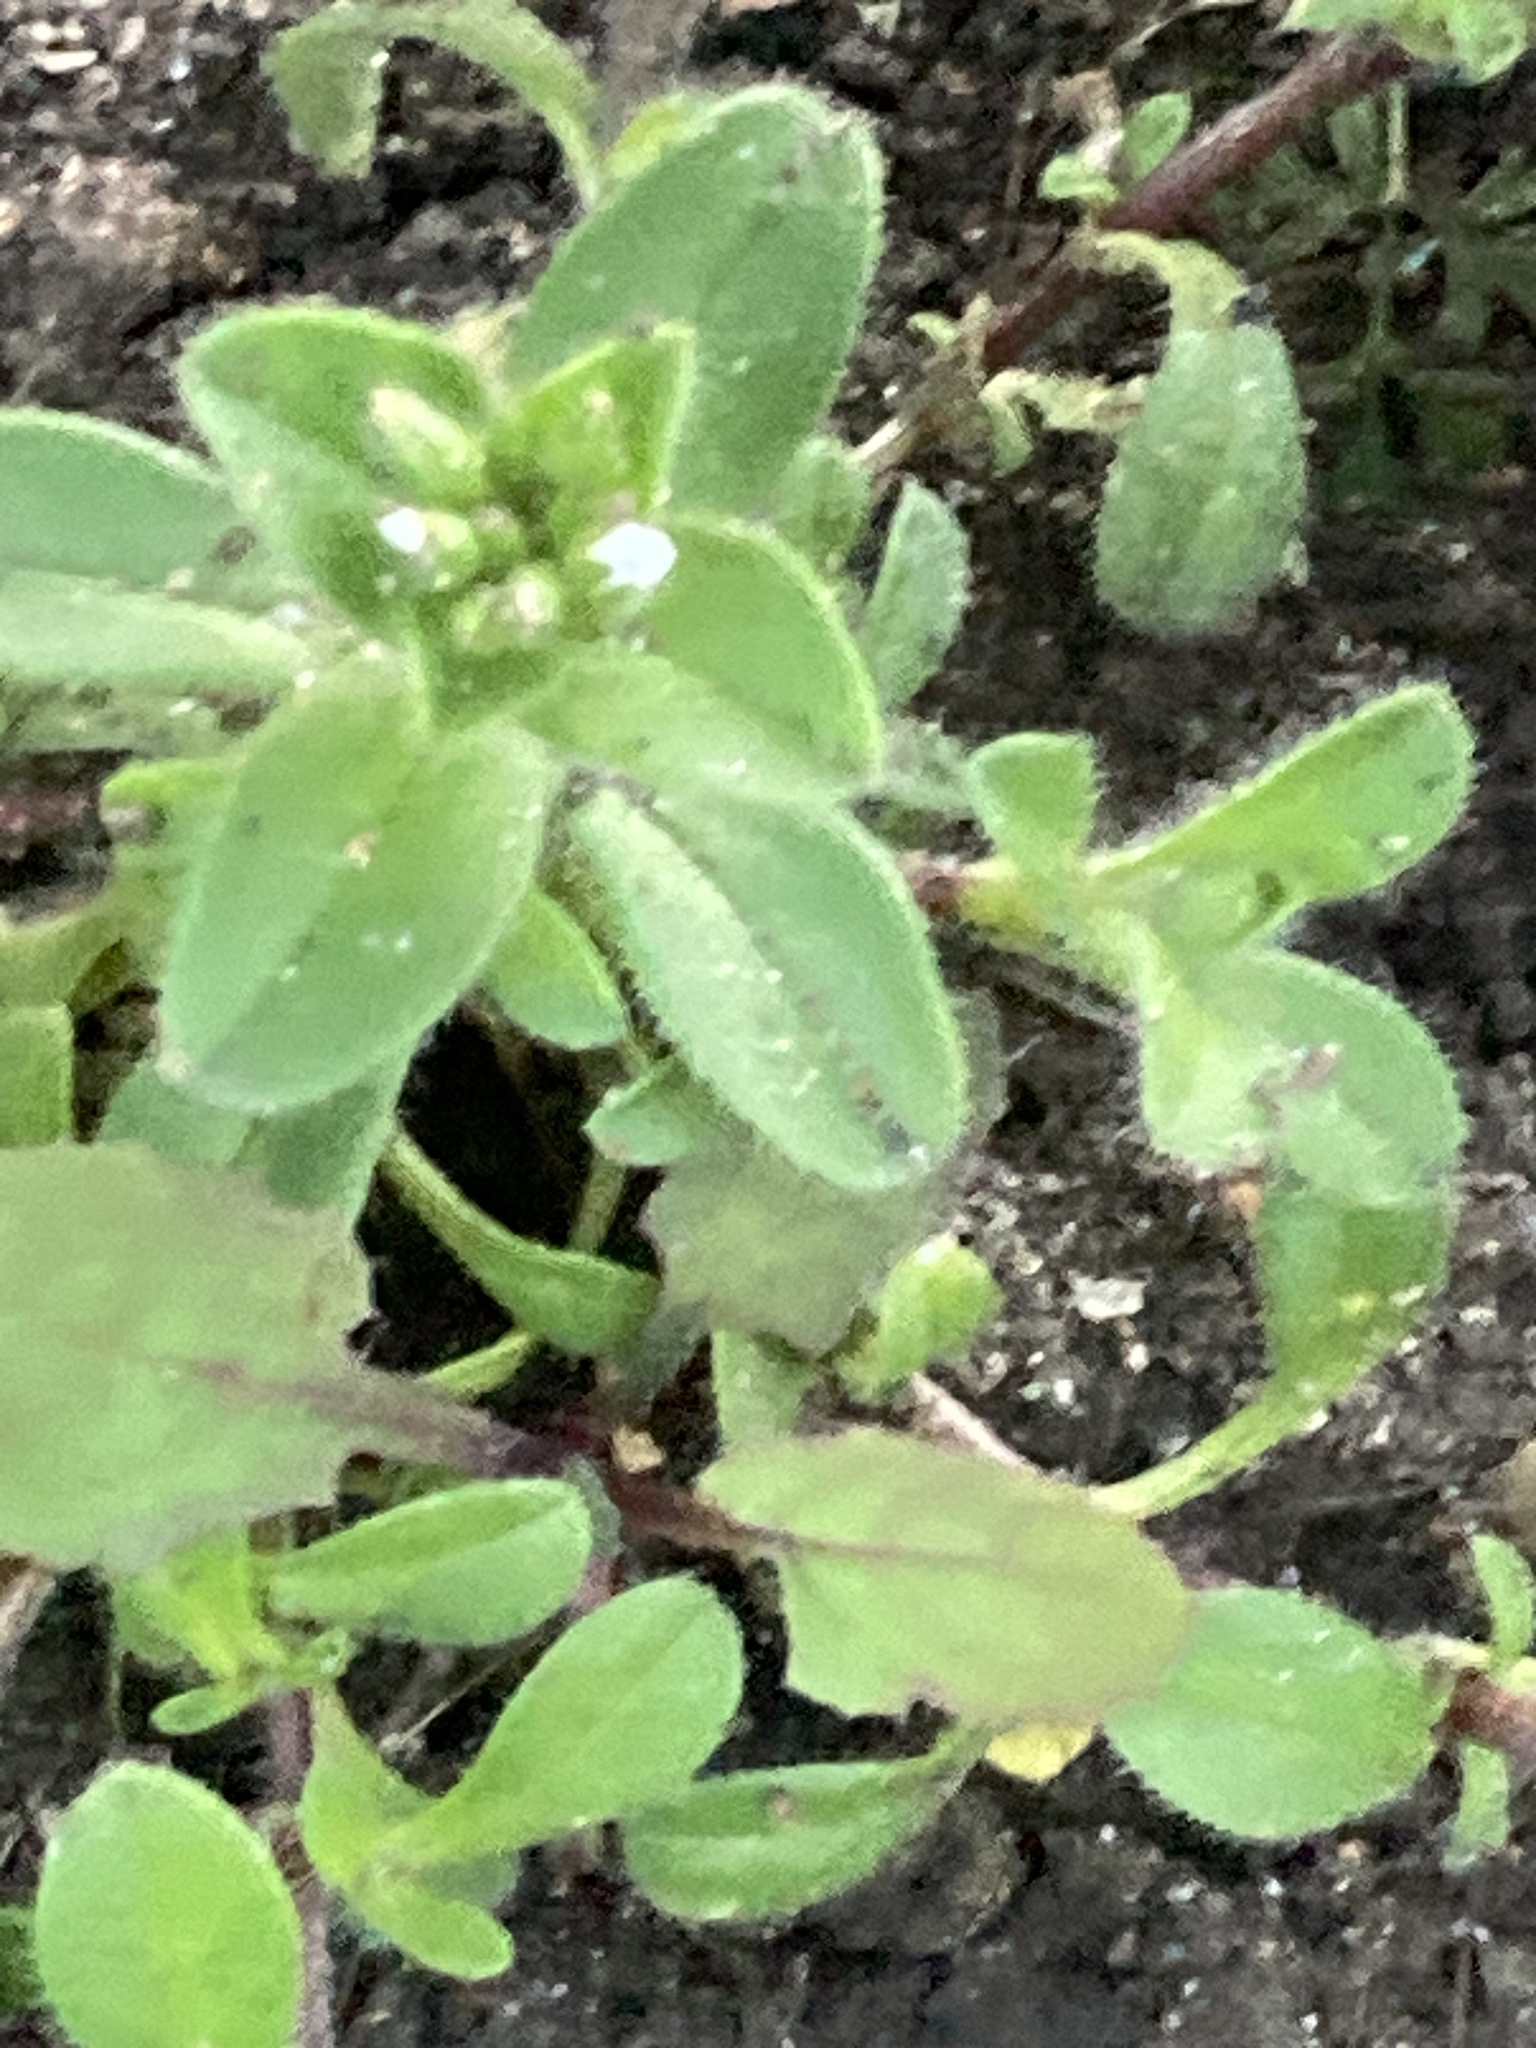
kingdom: Plantae
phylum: Tracheophyta
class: Magnoliopsida
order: Caryophyllales
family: Caryophyllaceae
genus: Cerastium
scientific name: Cerastium glomeratum
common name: Sticky chickweed
